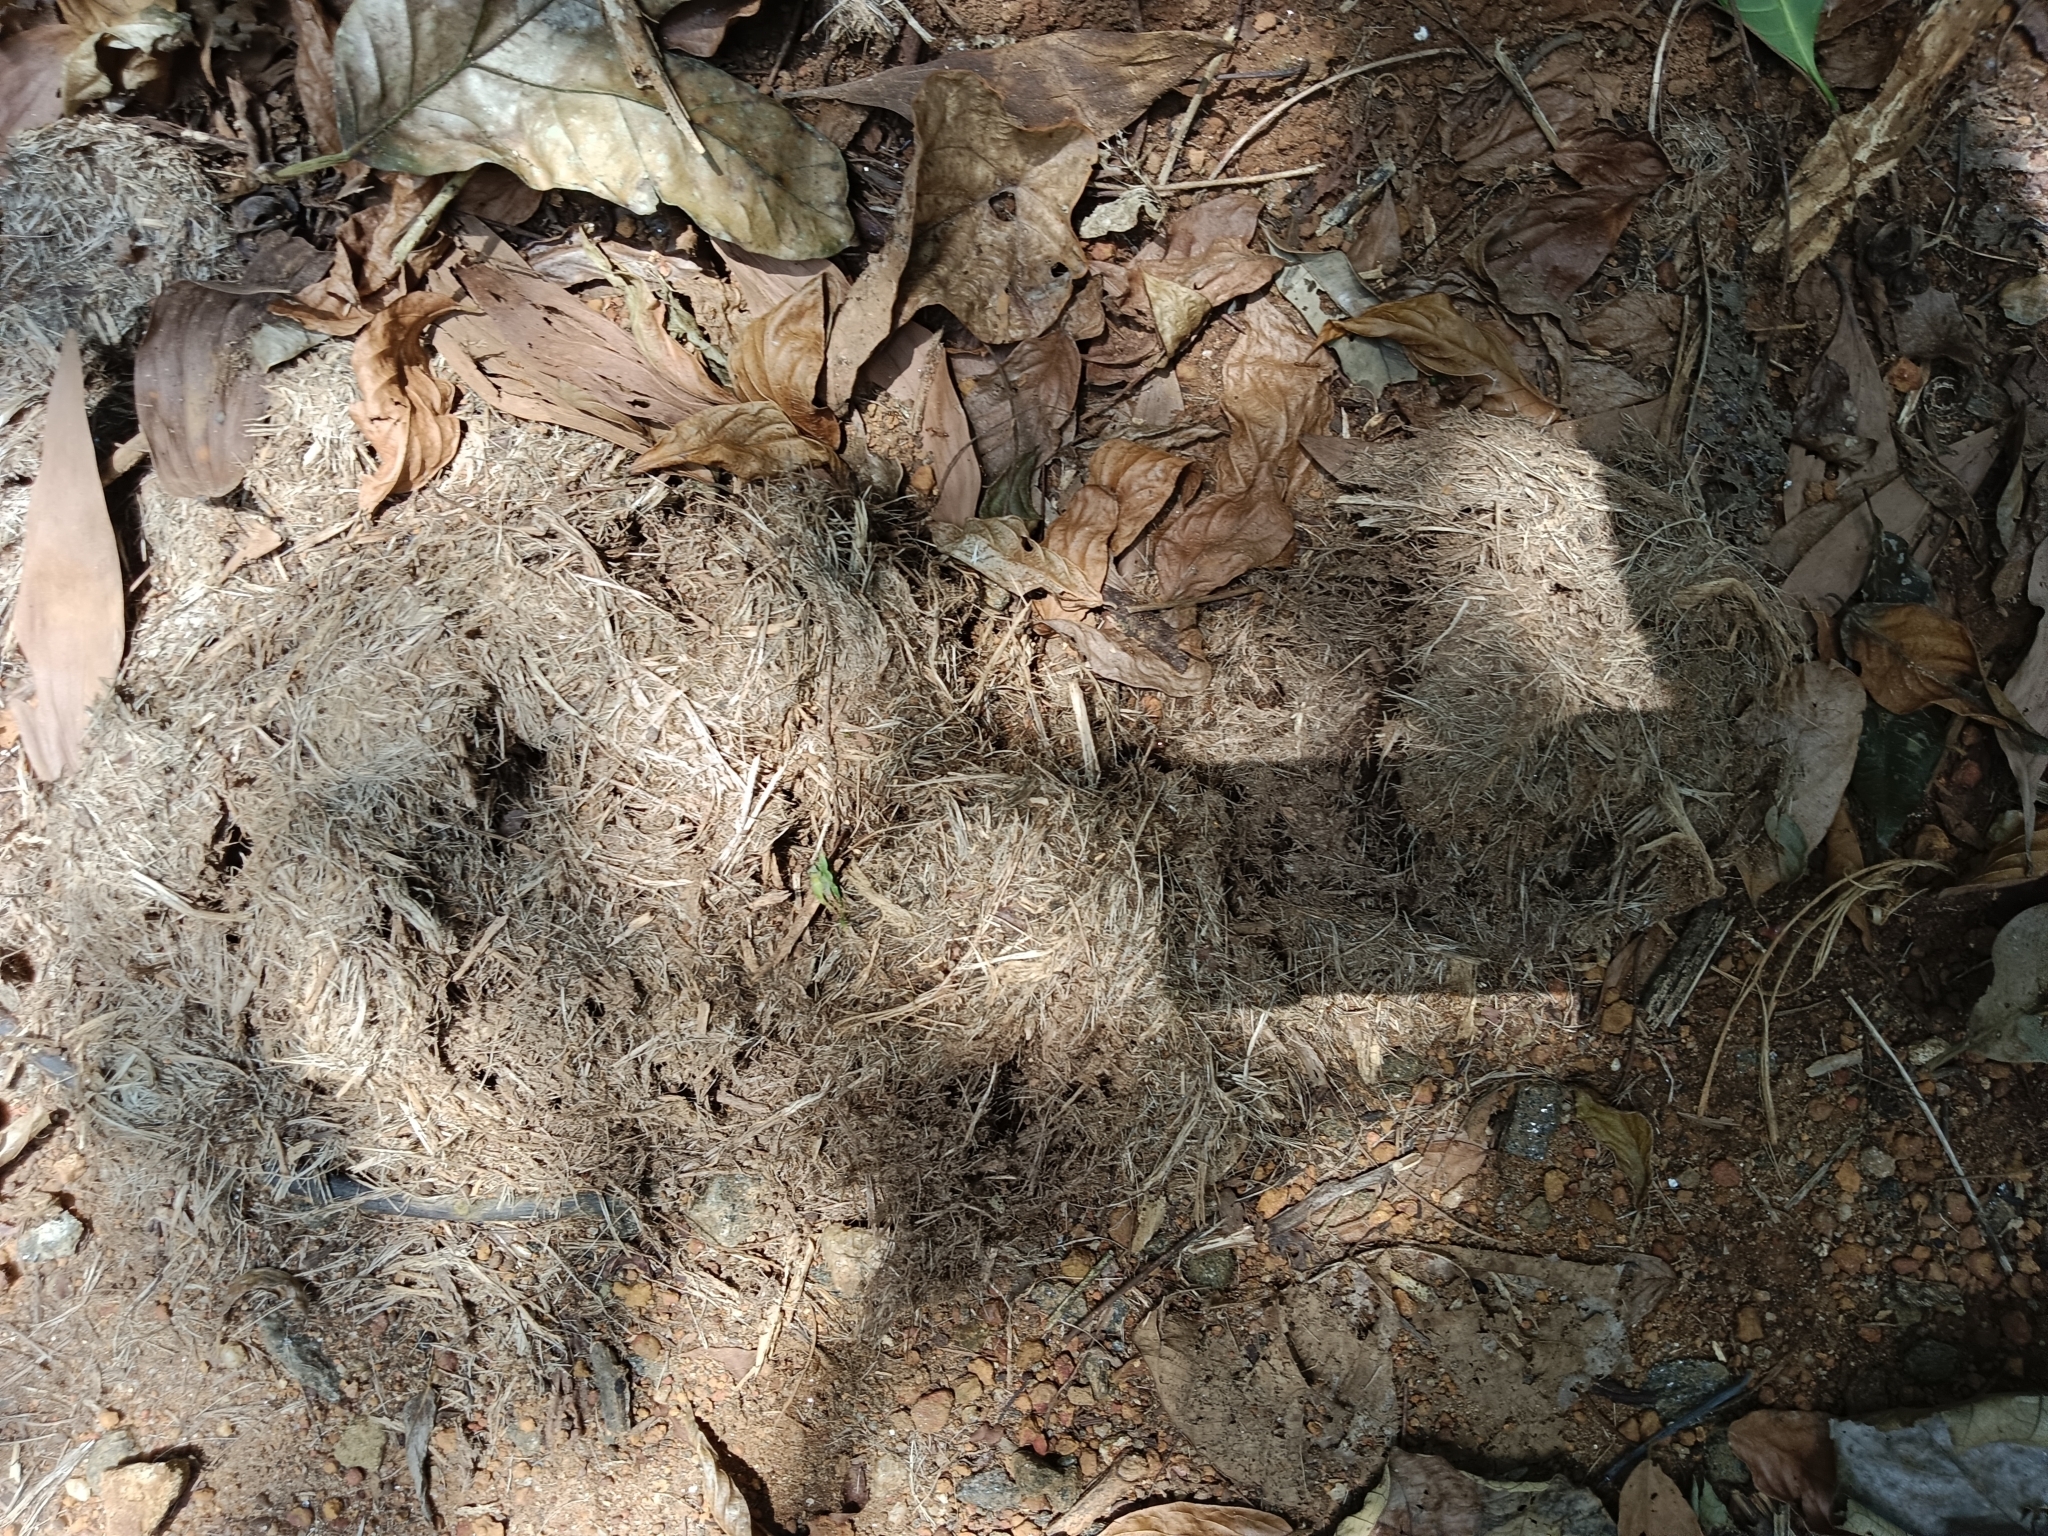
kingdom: Animalia
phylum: Chordata
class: Mammalia
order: Proboscidea
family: Elephantidae
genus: Elephas
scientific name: Elephas maximus
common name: Asian elephant
